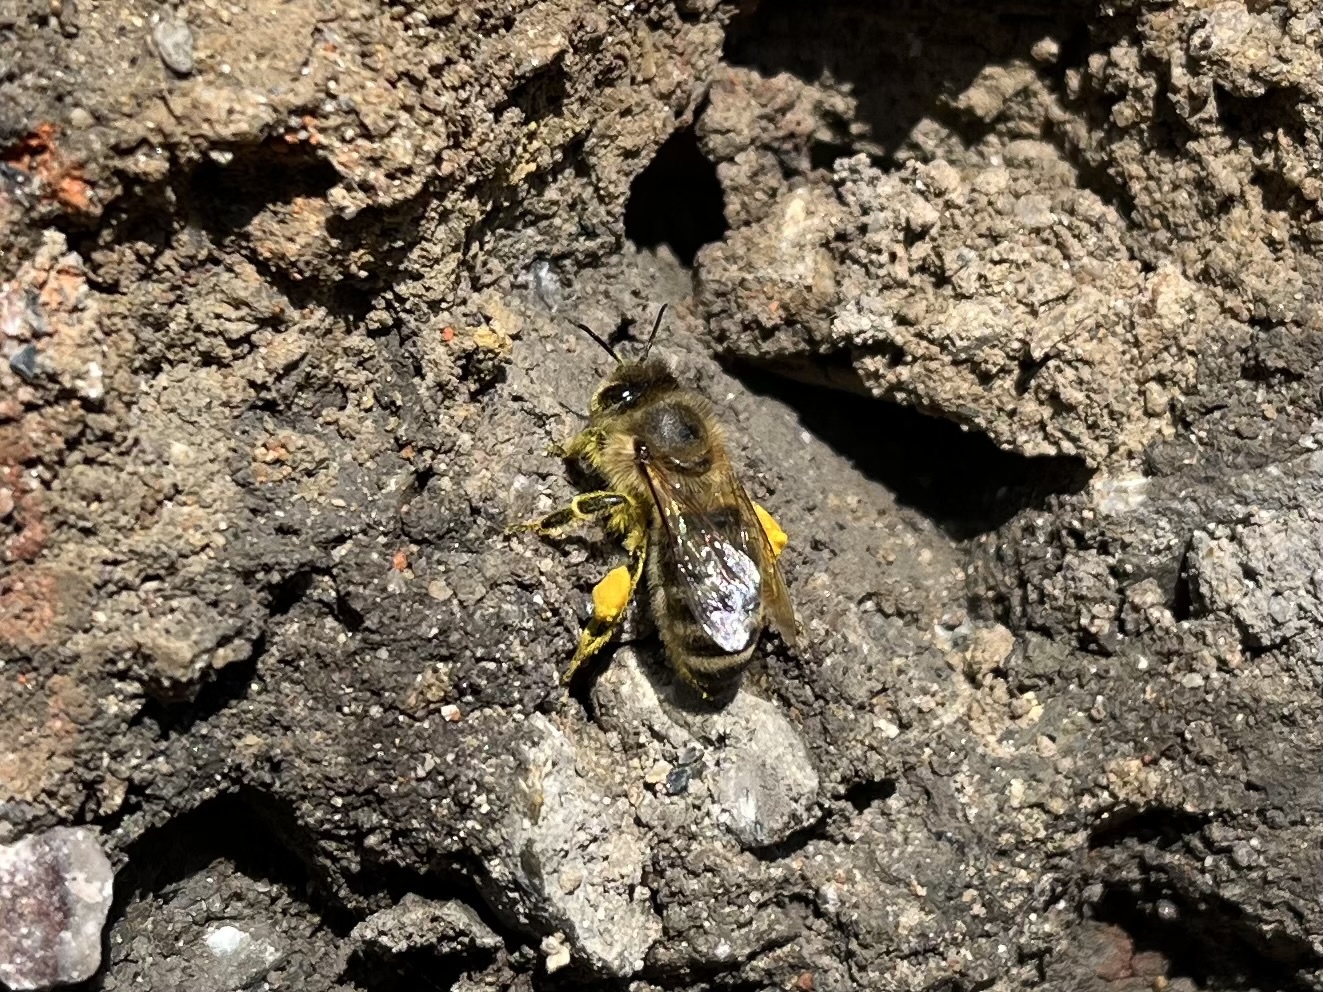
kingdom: Animalia
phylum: Arthropoda
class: Insecta
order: Hymenoptera
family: Apidae
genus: Apis
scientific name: Apis mellifera
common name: Honey bee
